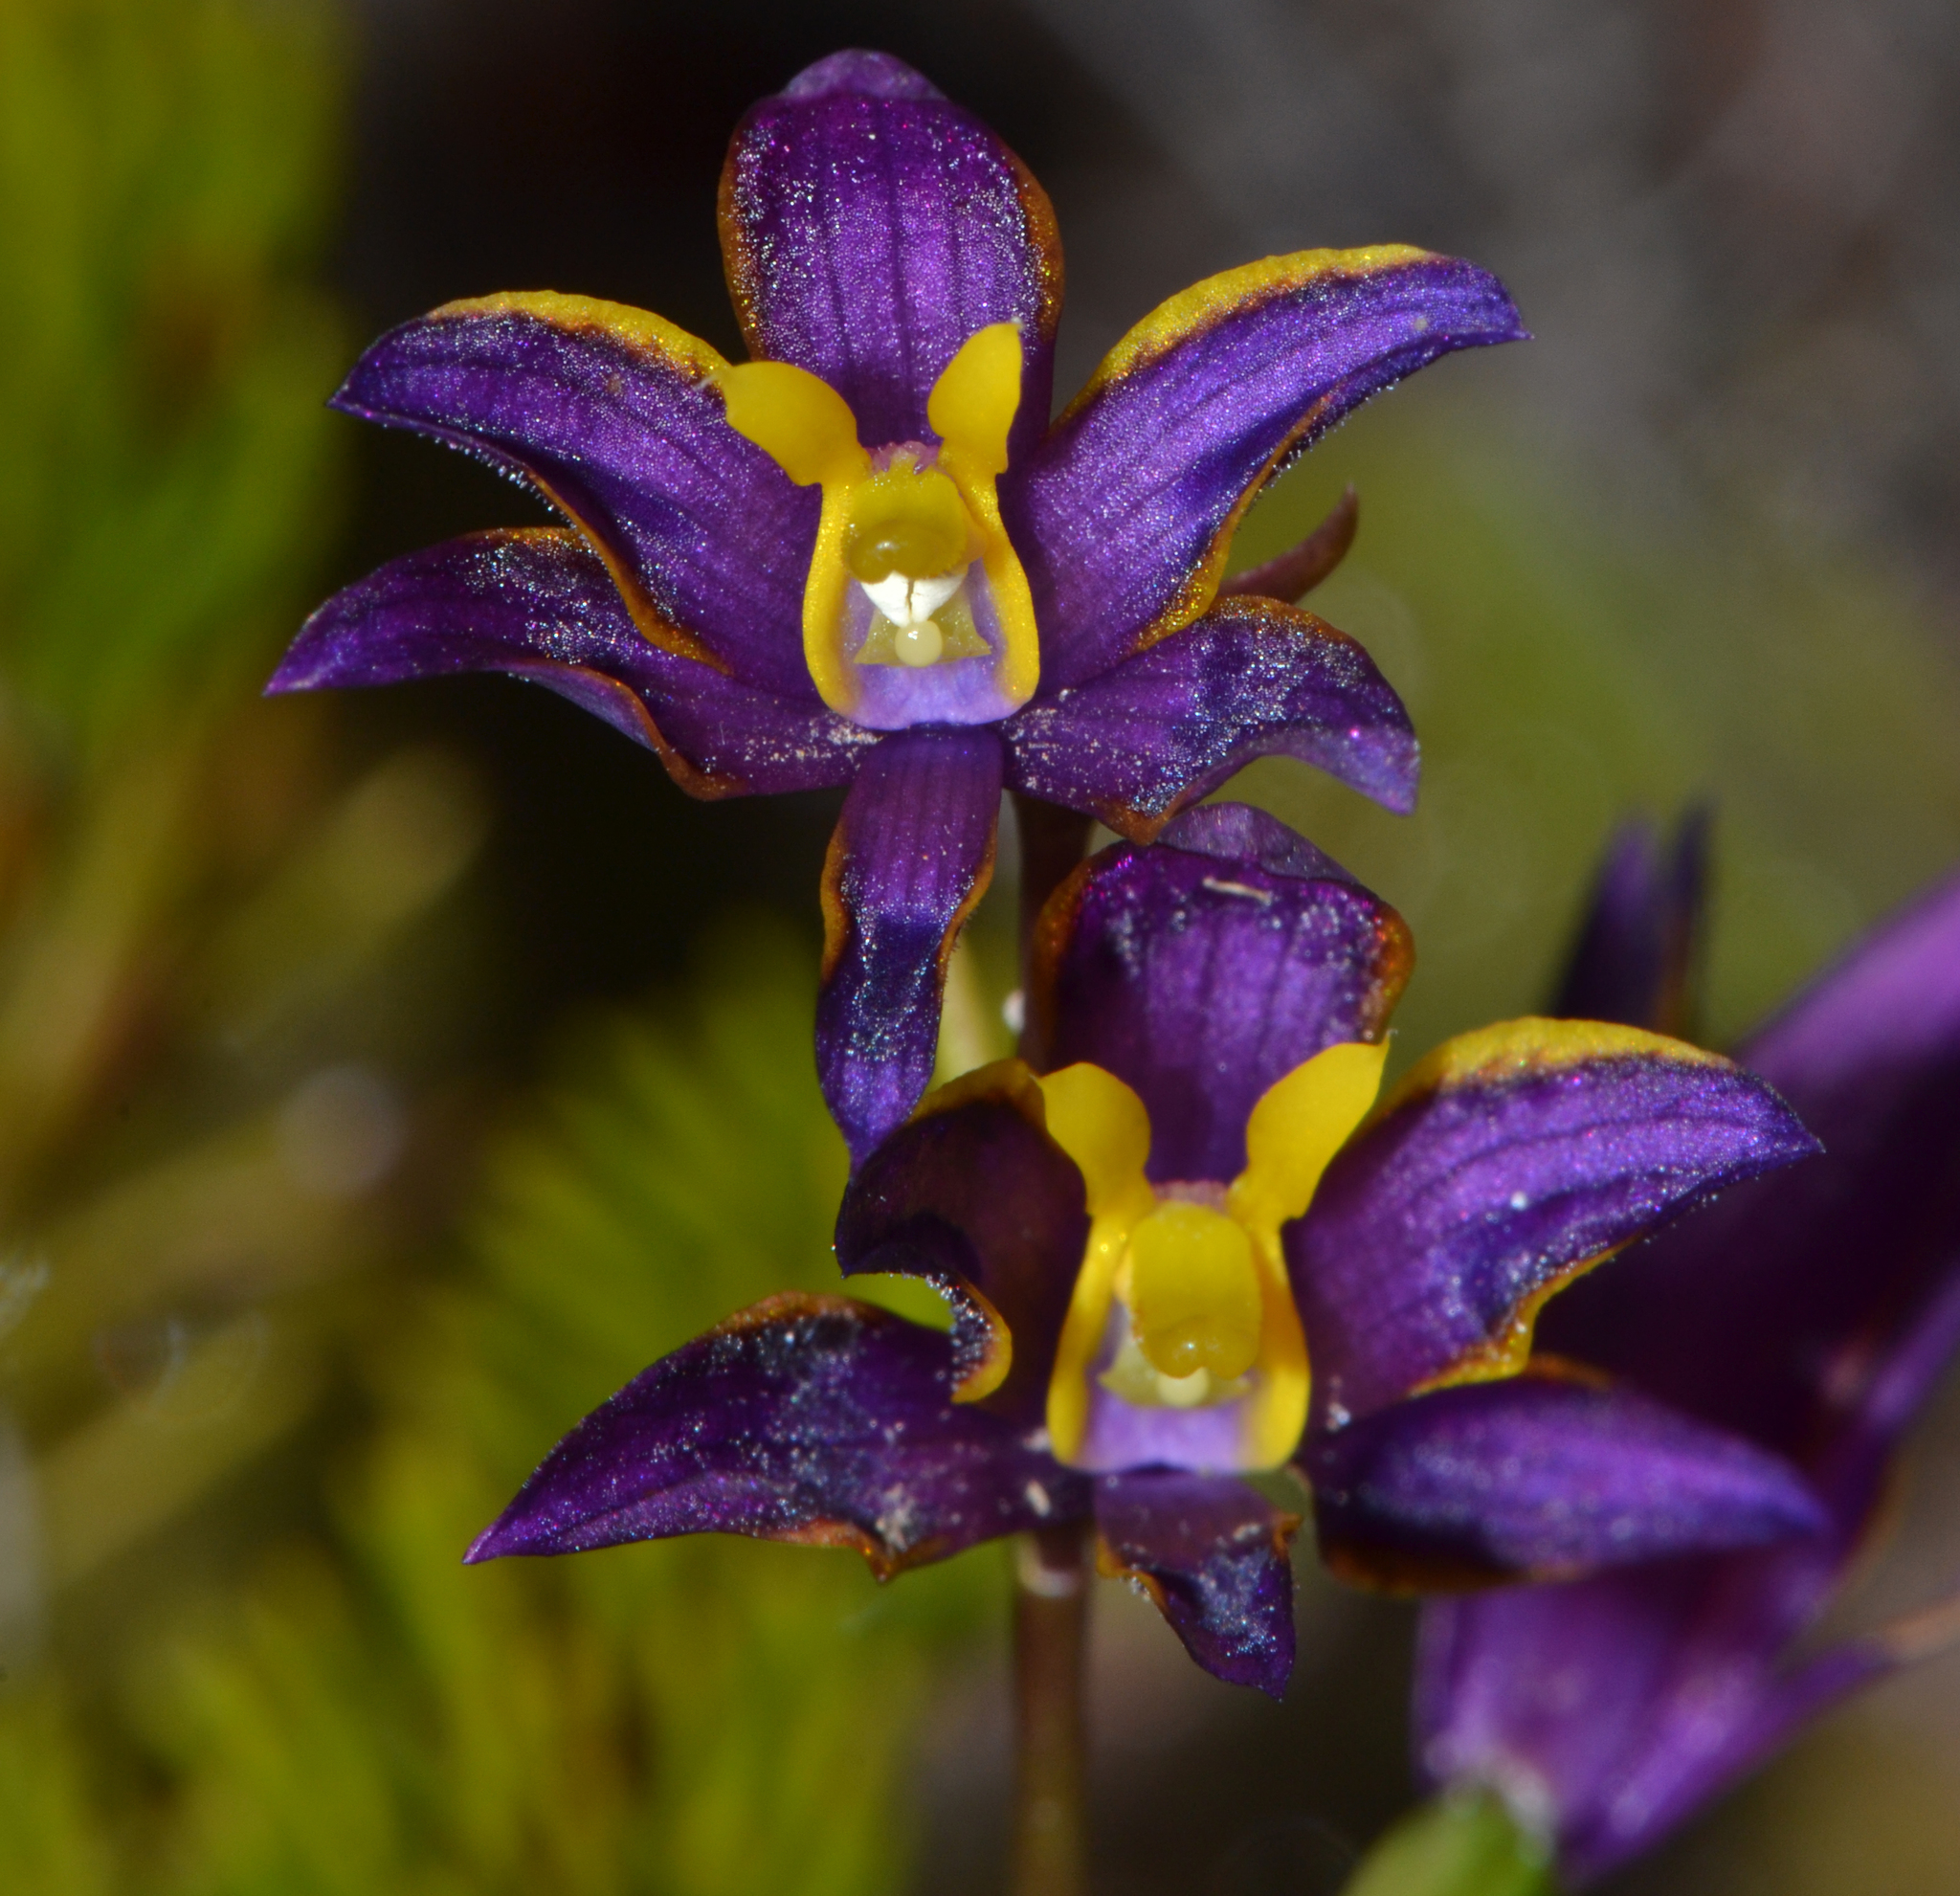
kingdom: Plantae
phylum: Tracheophyta
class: Liliopsida
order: Asparagales
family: Orchidaceae
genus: Thelymitra
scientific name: Thelymitra apiculata
